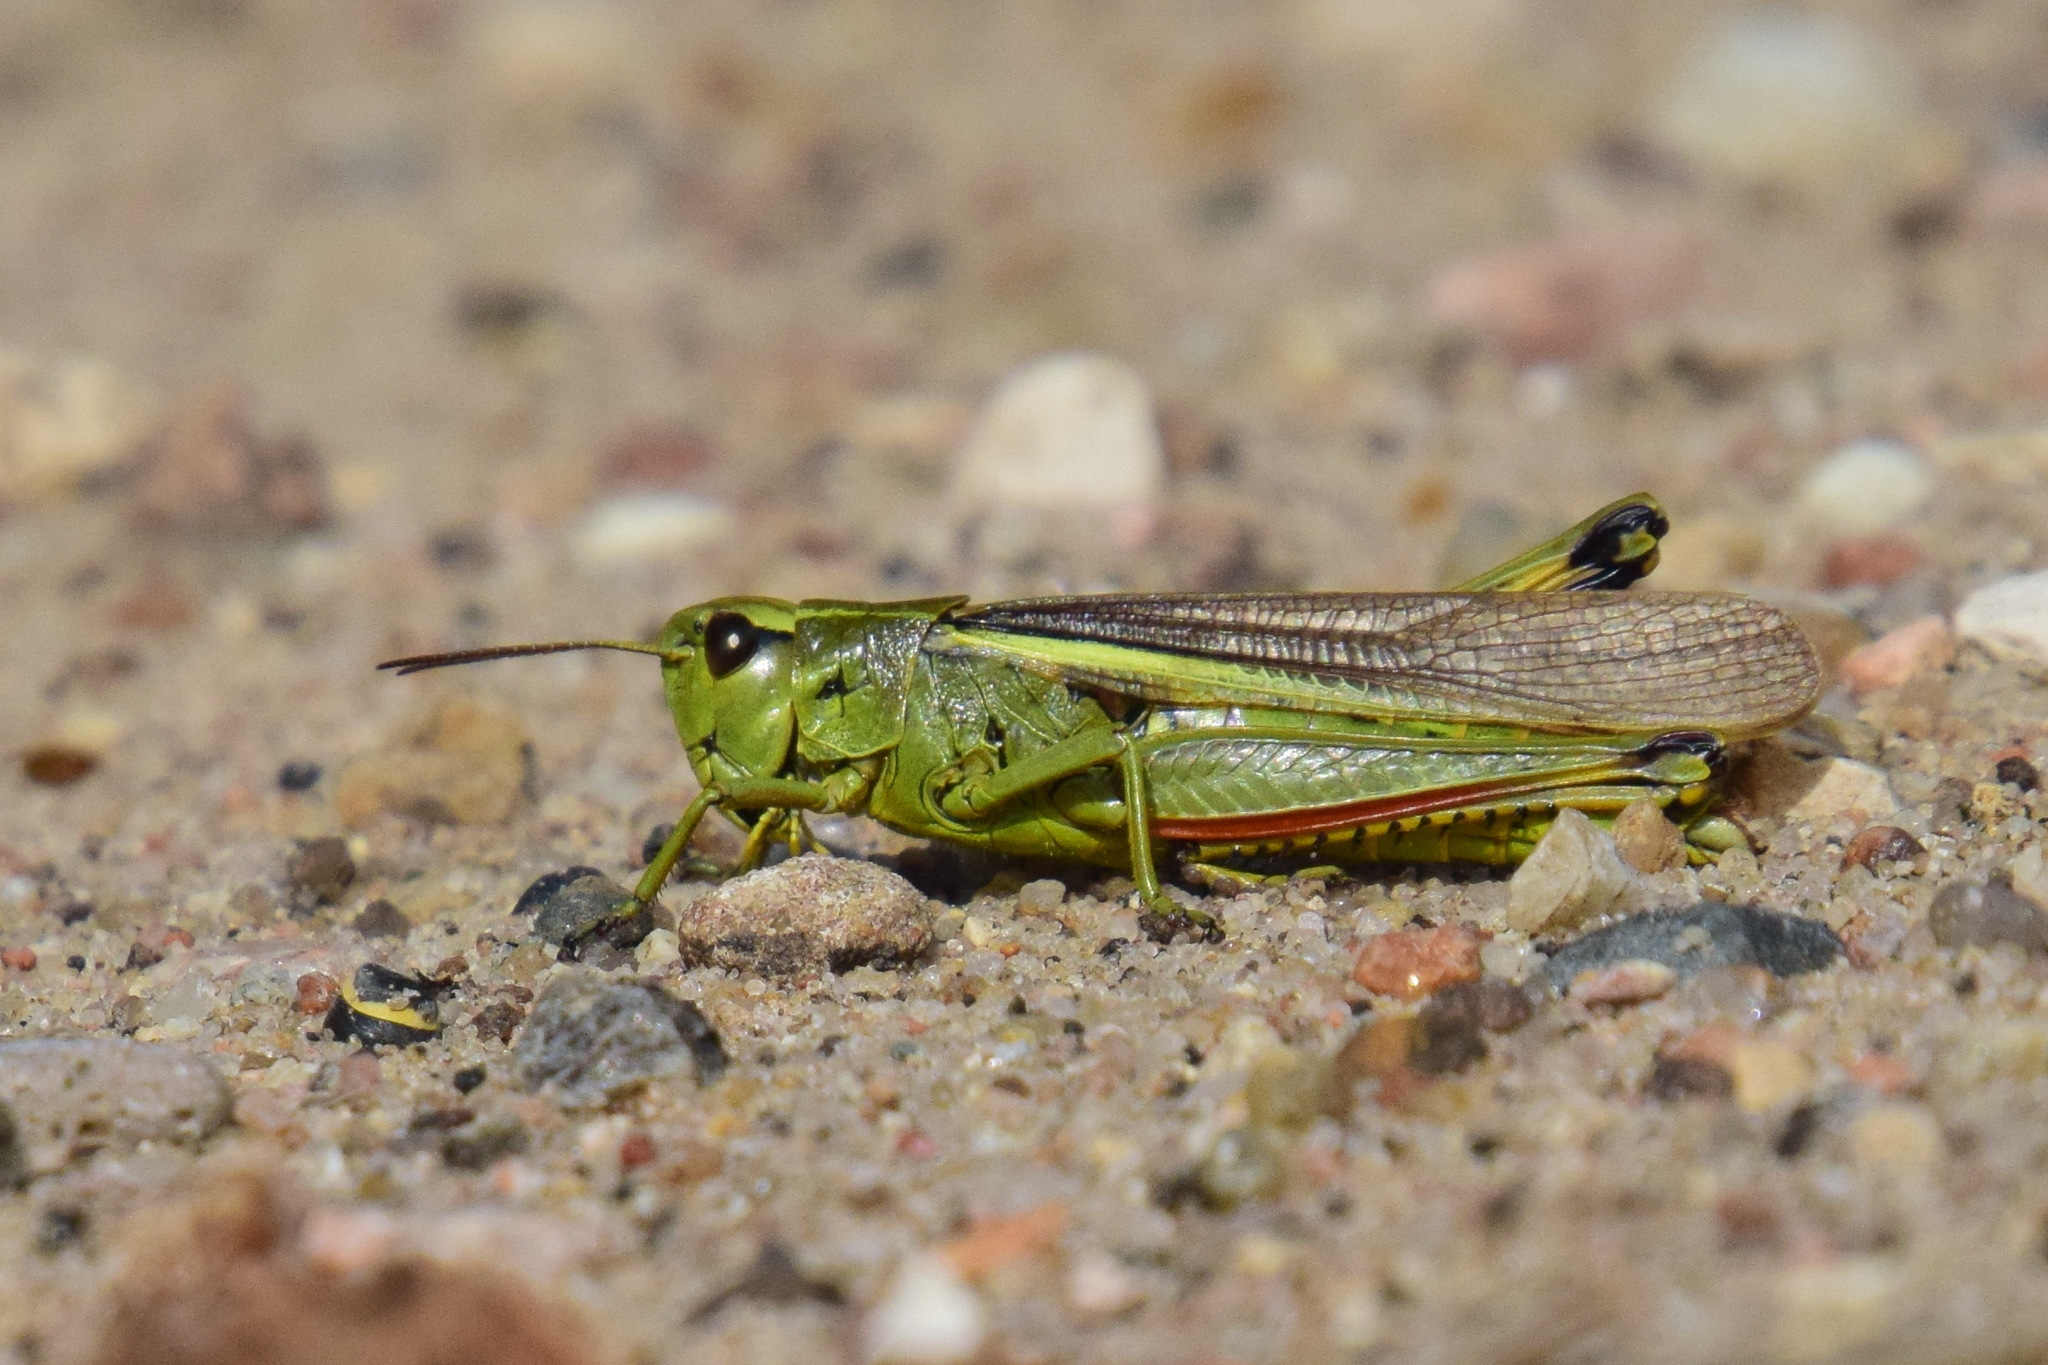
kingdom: Animalia
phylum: Arthropoda
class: Insecta
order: Orthoptera
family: Acrididae
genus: Stethophyma
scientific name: Stethophyma grossum
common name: Large marsh grasshopper
